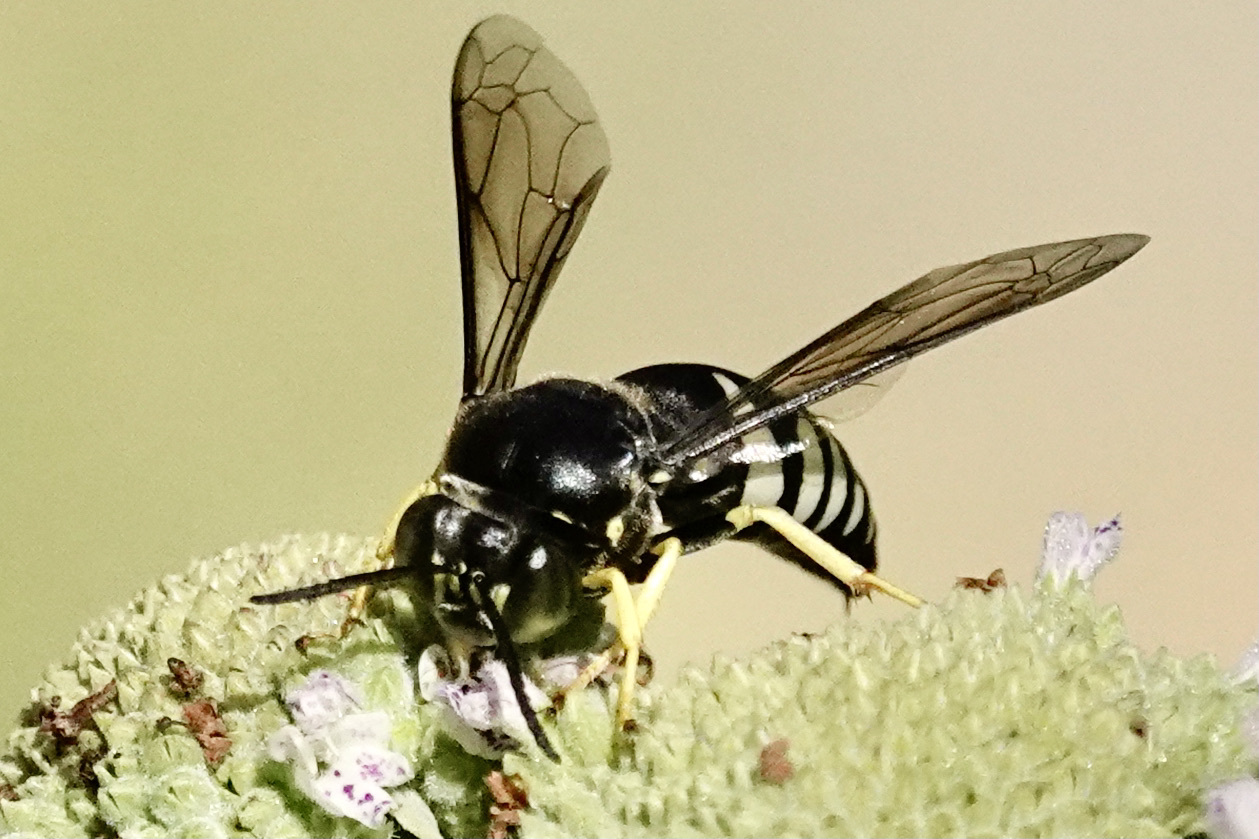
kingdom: Animalia
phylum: Arthropoda
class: Insecta
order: Hymenoptera
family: Crabronidae
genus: Bicyrtes
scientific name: Bicyrtes quadrifasciatus
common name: Four-banded stink bug hunter wasp
